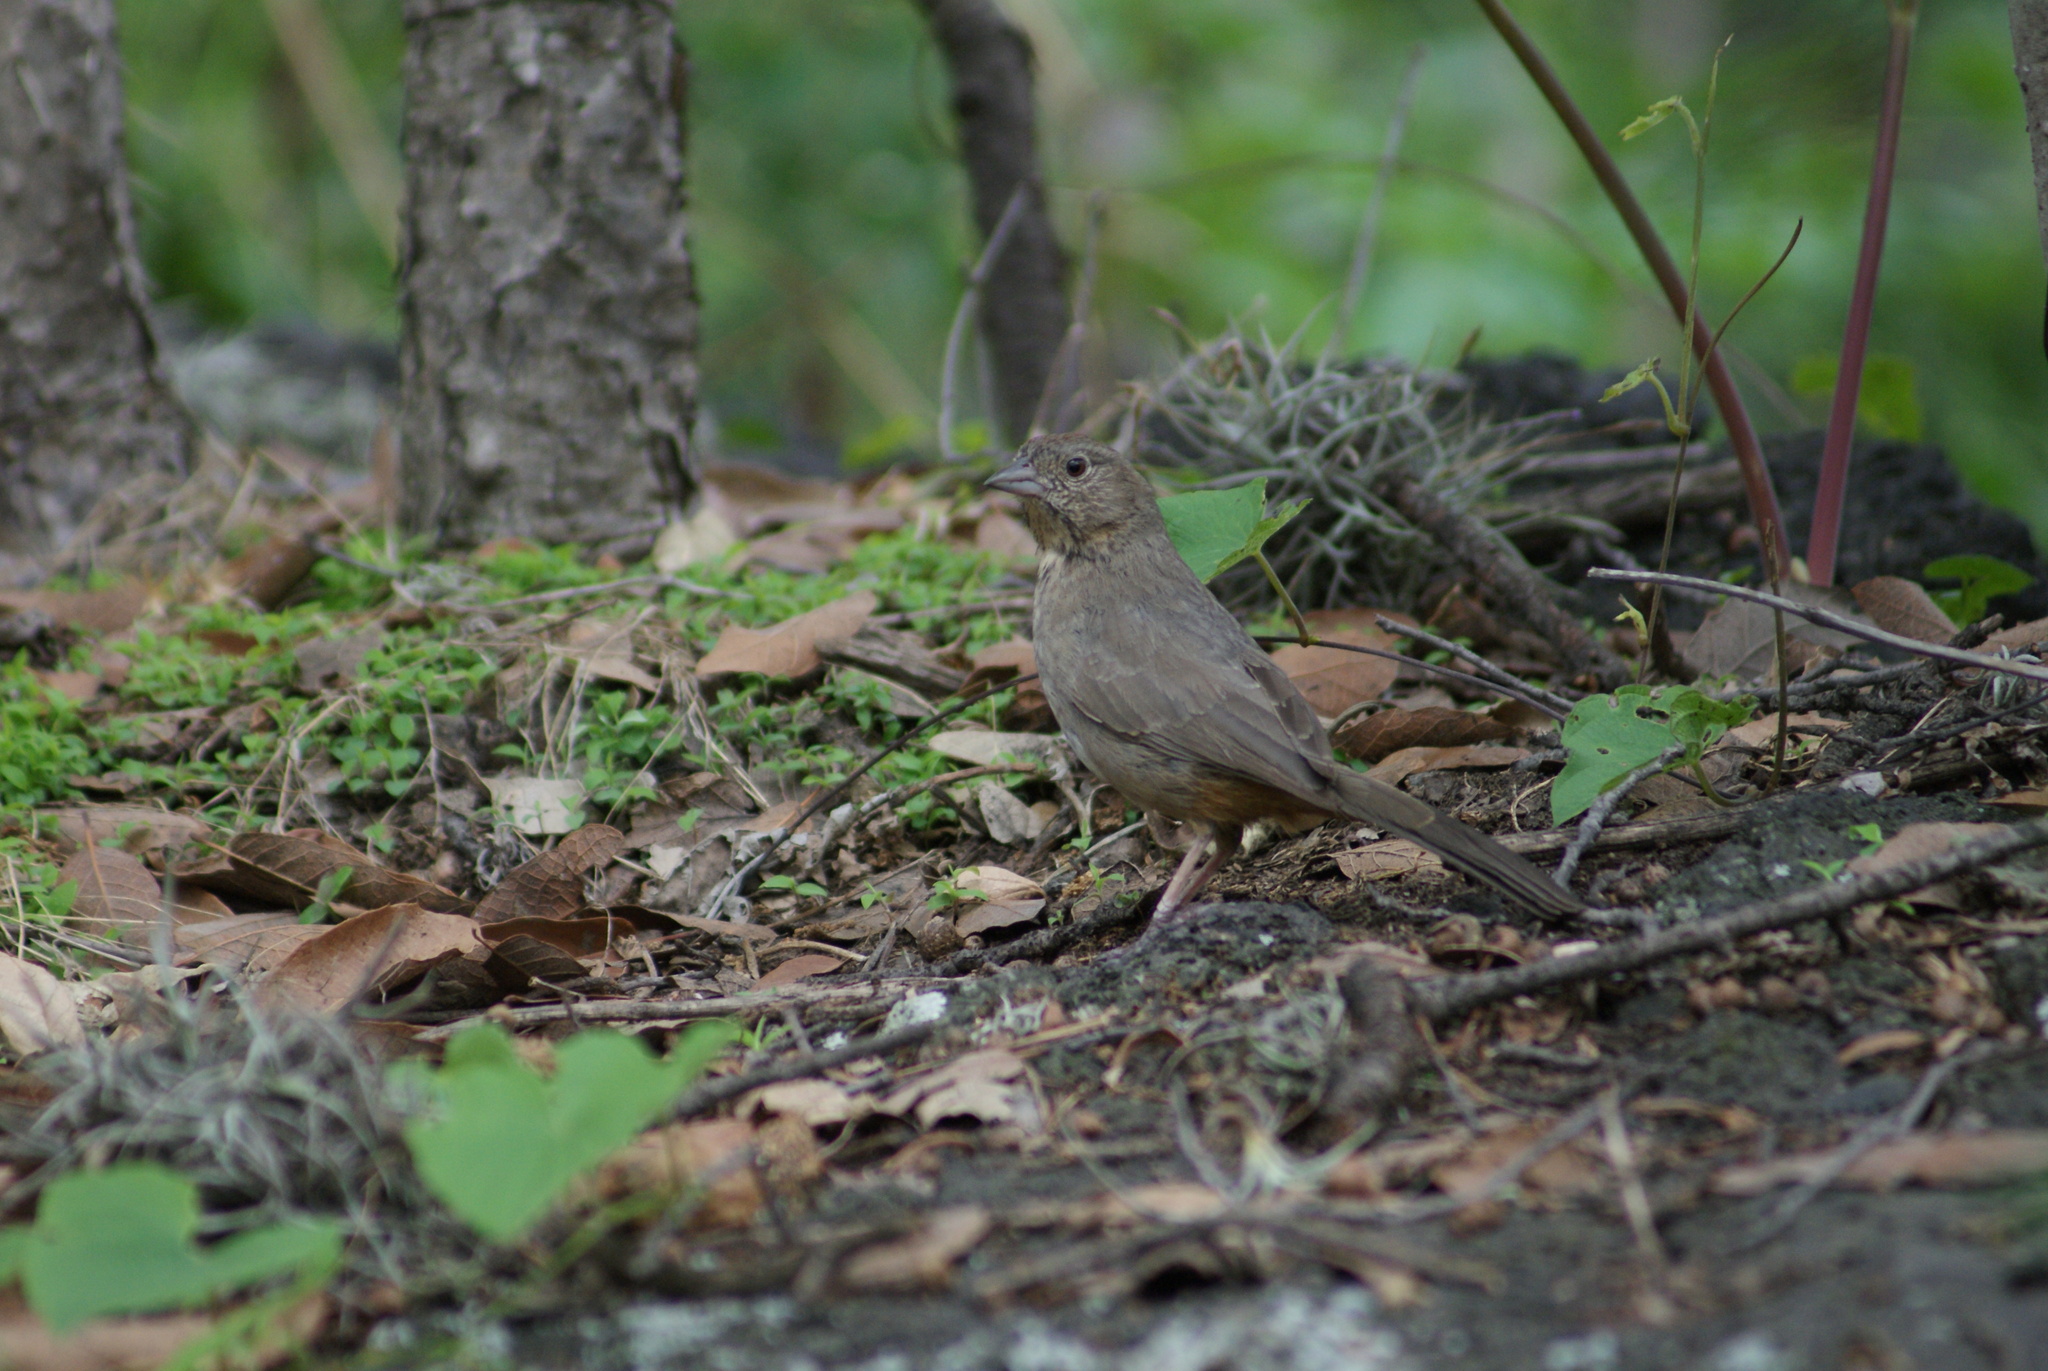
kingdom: Animalia
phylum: Chordata
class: Aves
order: Passeriformes
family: Passerellidae
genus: Melozone
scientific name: Melozone fusca
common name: Canyon towhee
